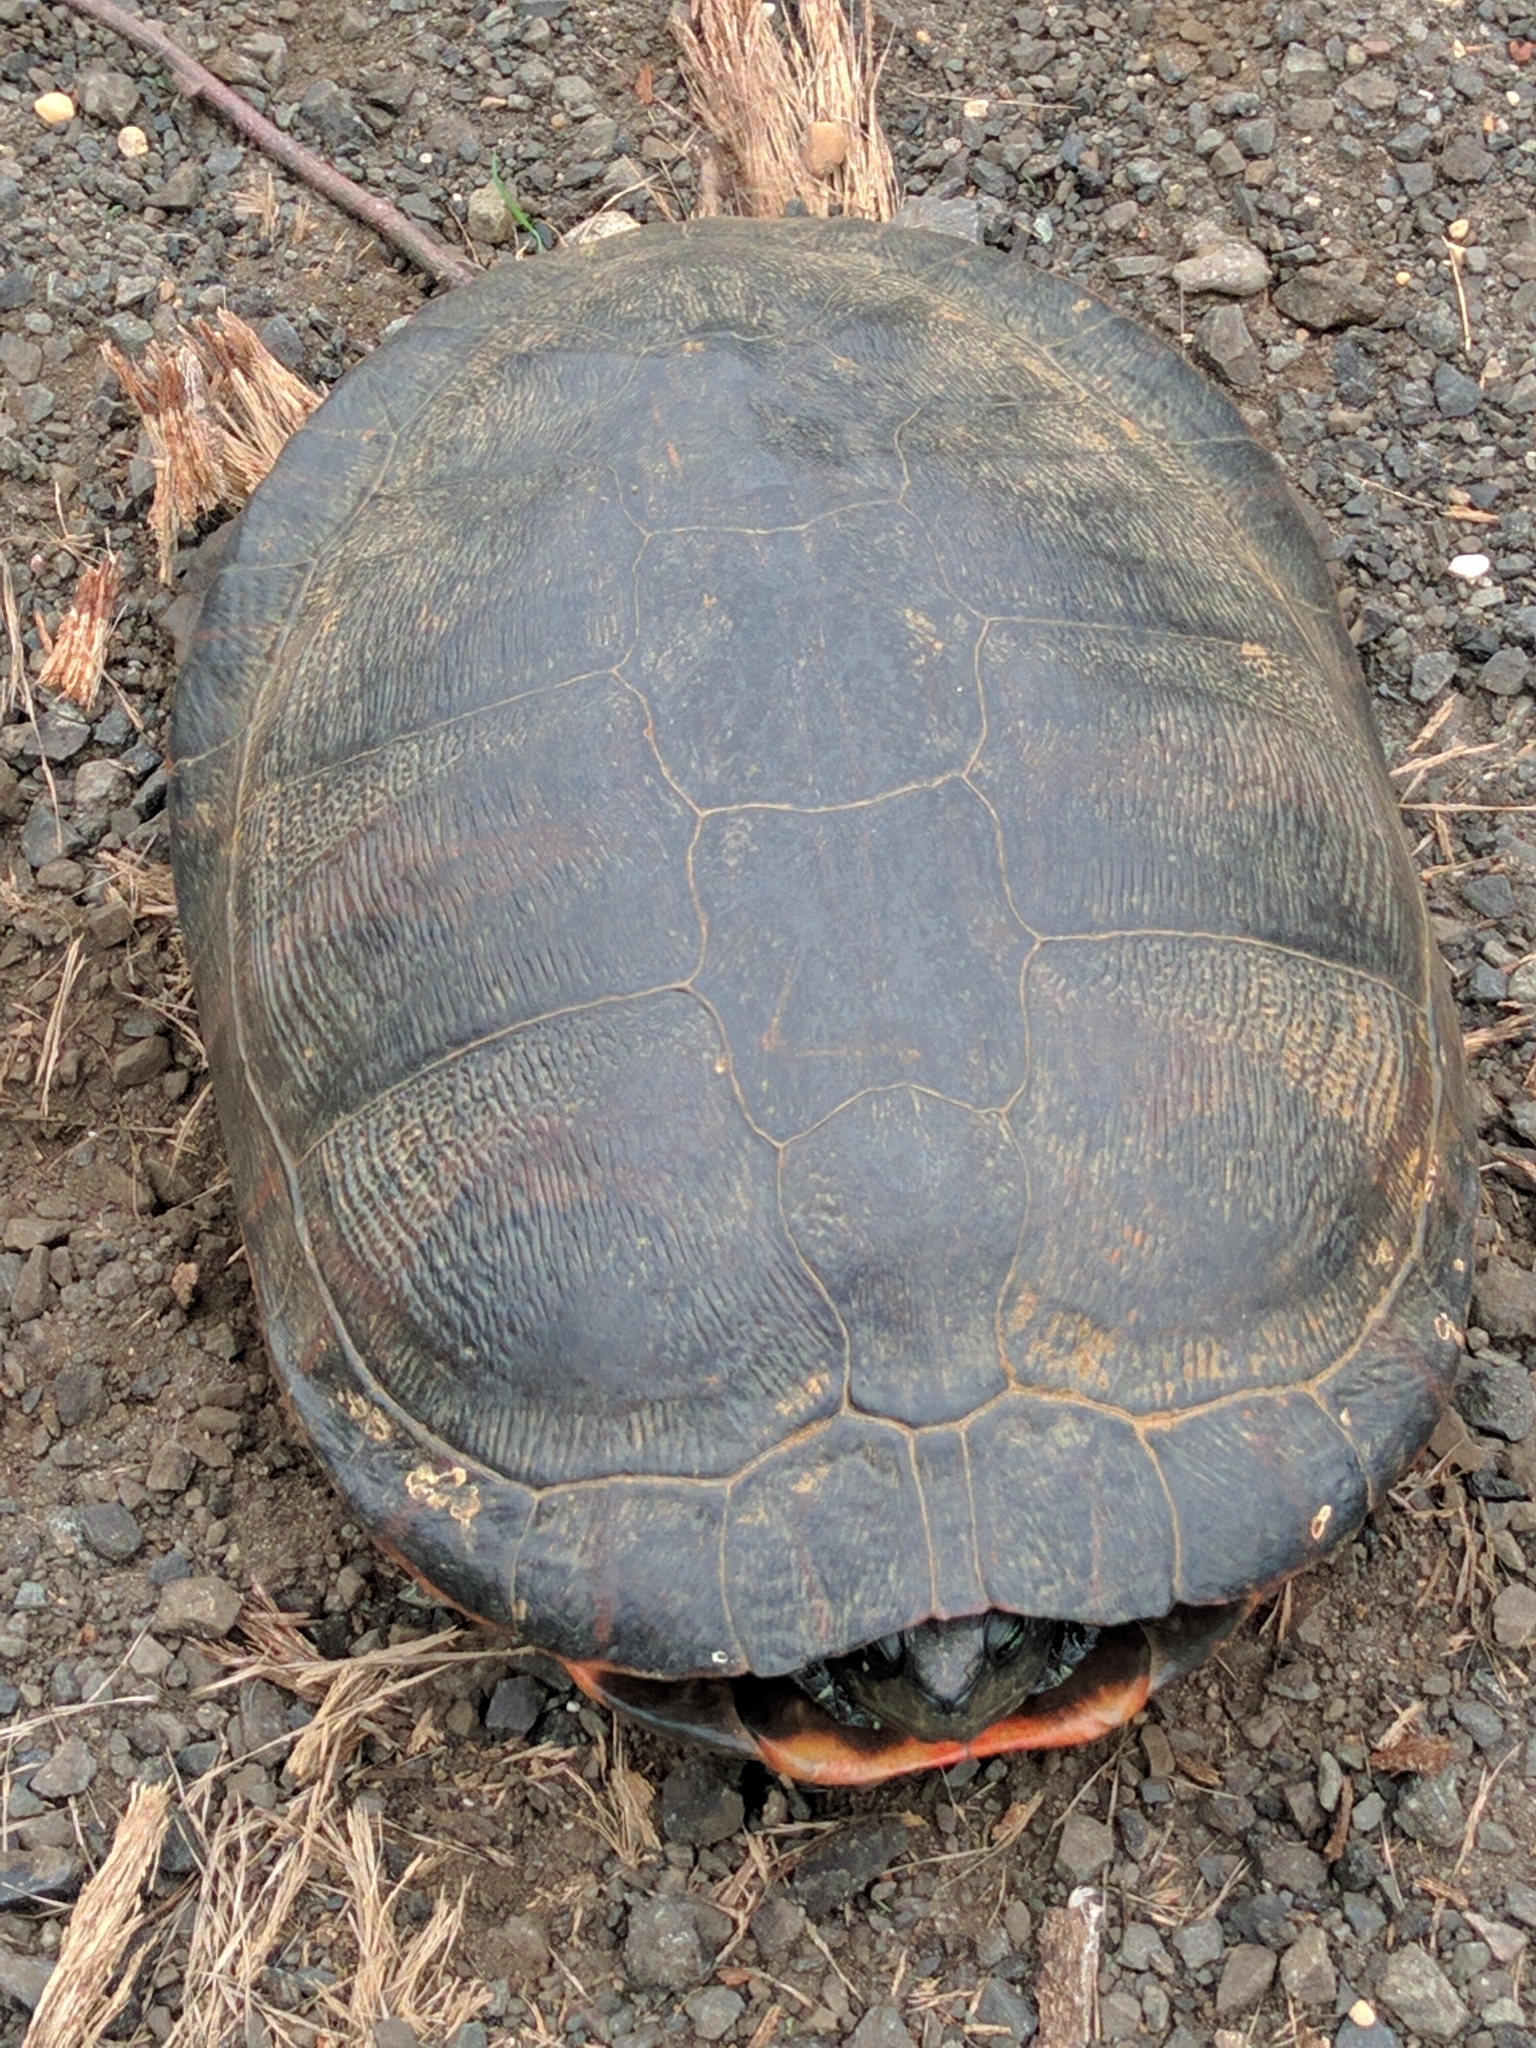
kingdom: Animalia
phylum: Chordata
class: Testudines
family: Emydidae
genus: Pseudemys
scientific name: Pseudemys rubriventris
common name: American red-bellied turtle
